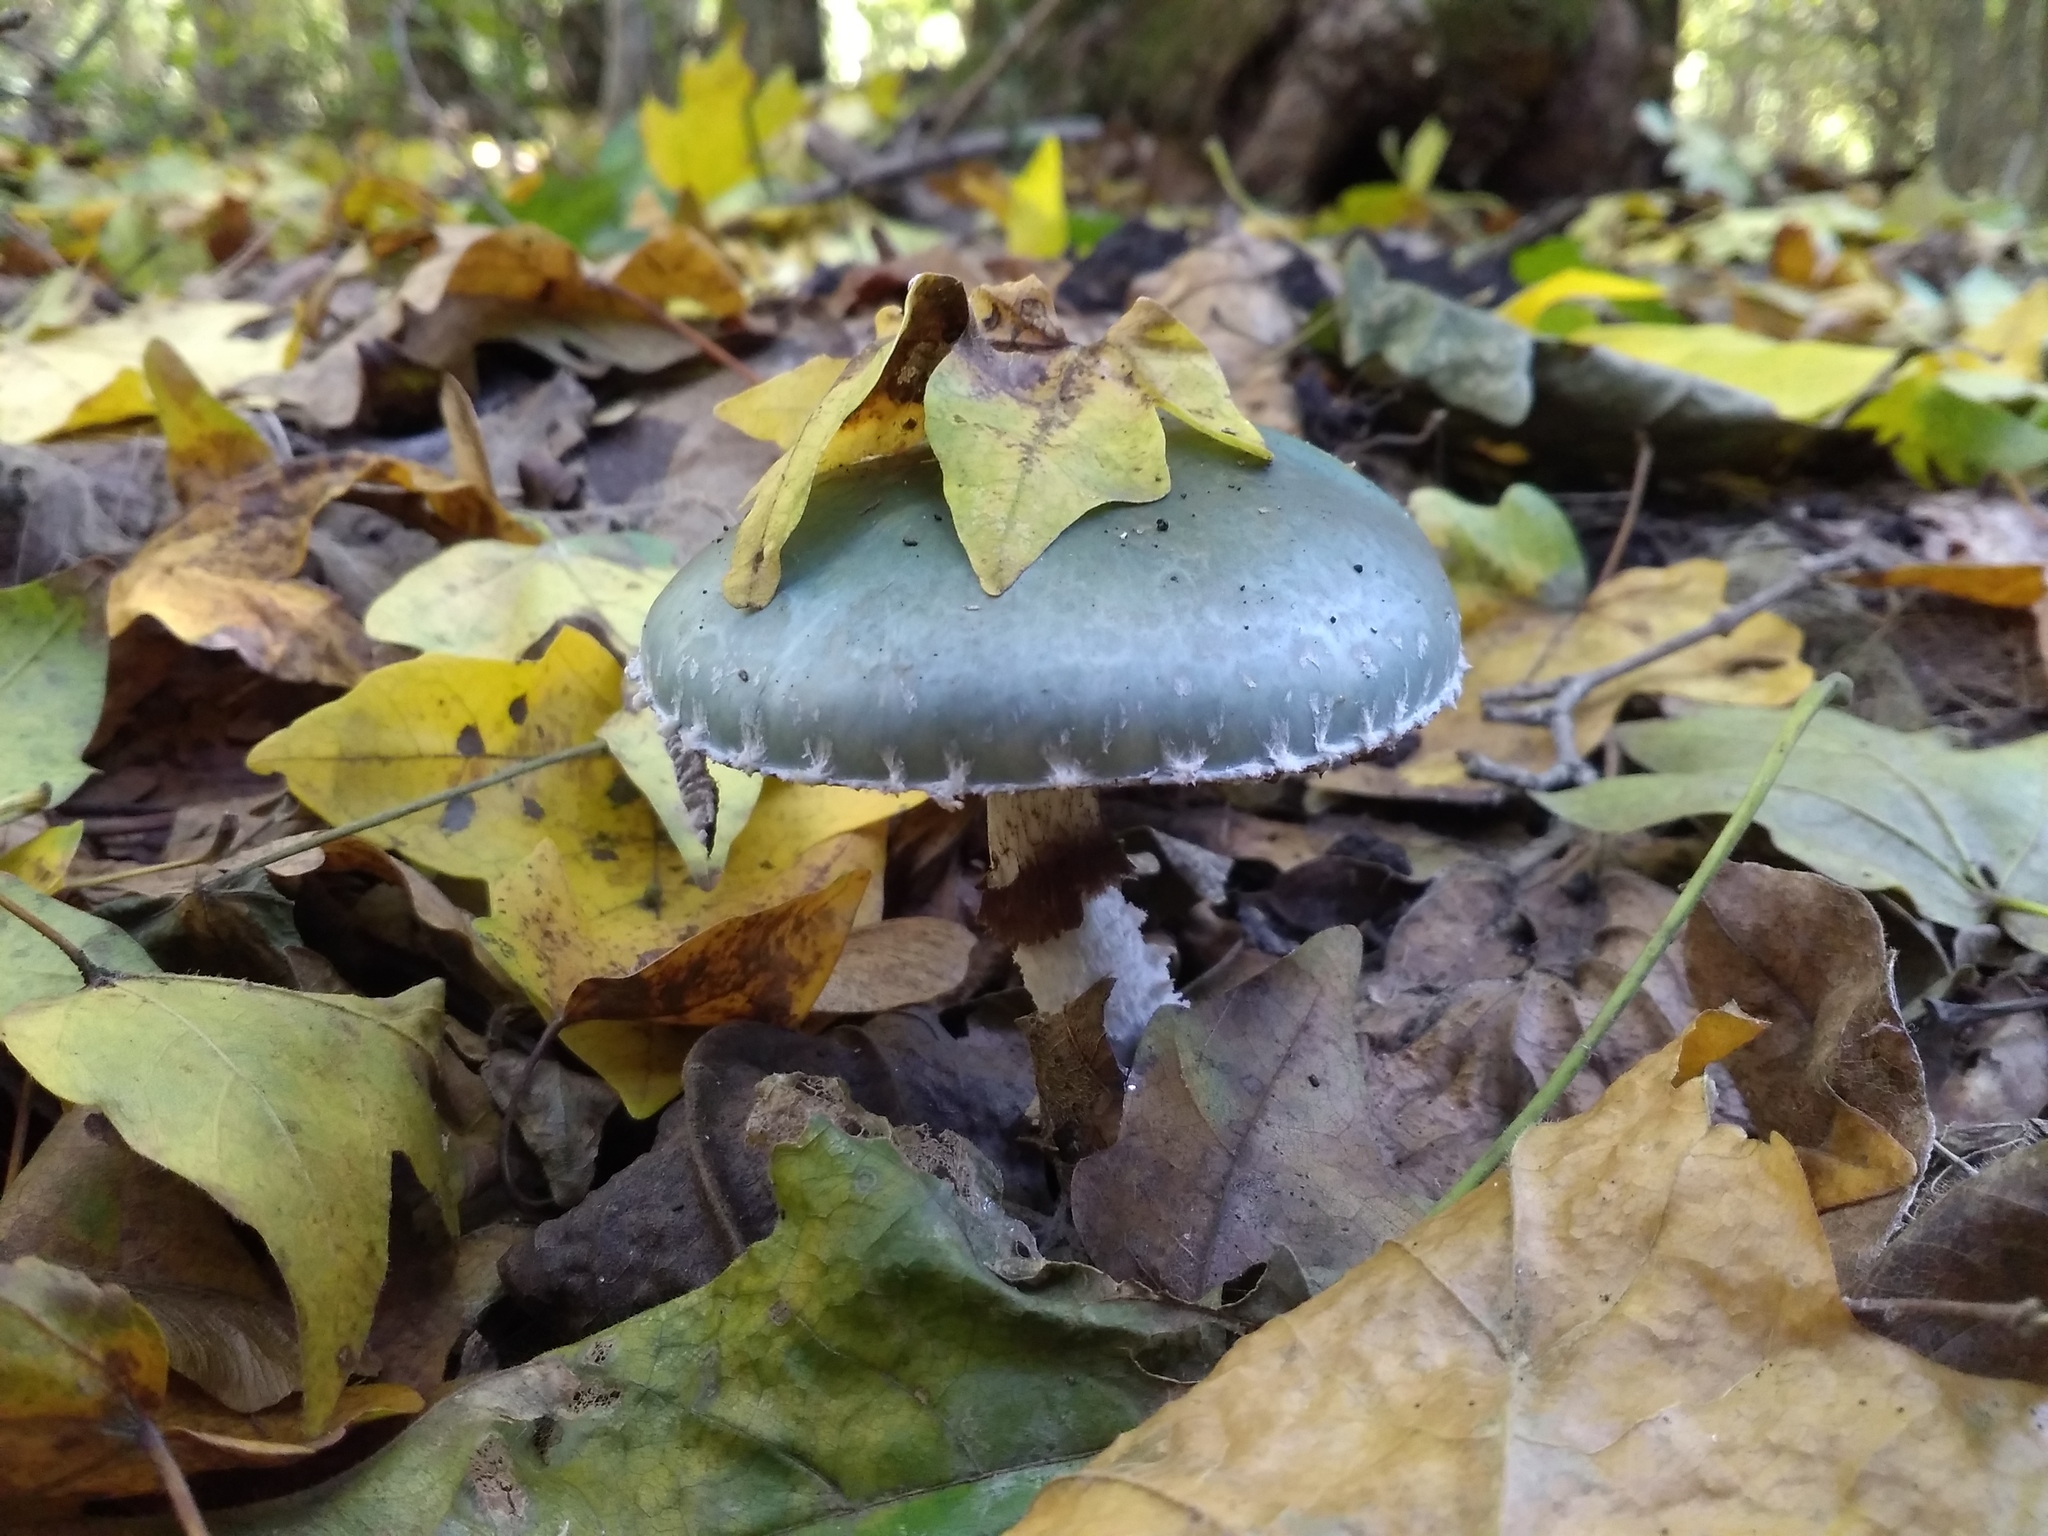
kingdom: Fungi
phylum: Basidiomycota
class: Agaricomycetes
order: Agaricales
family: Strophariaceae
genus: Stropharia
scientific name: Stropharia aeruginosa
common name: Verdigris roundhead
